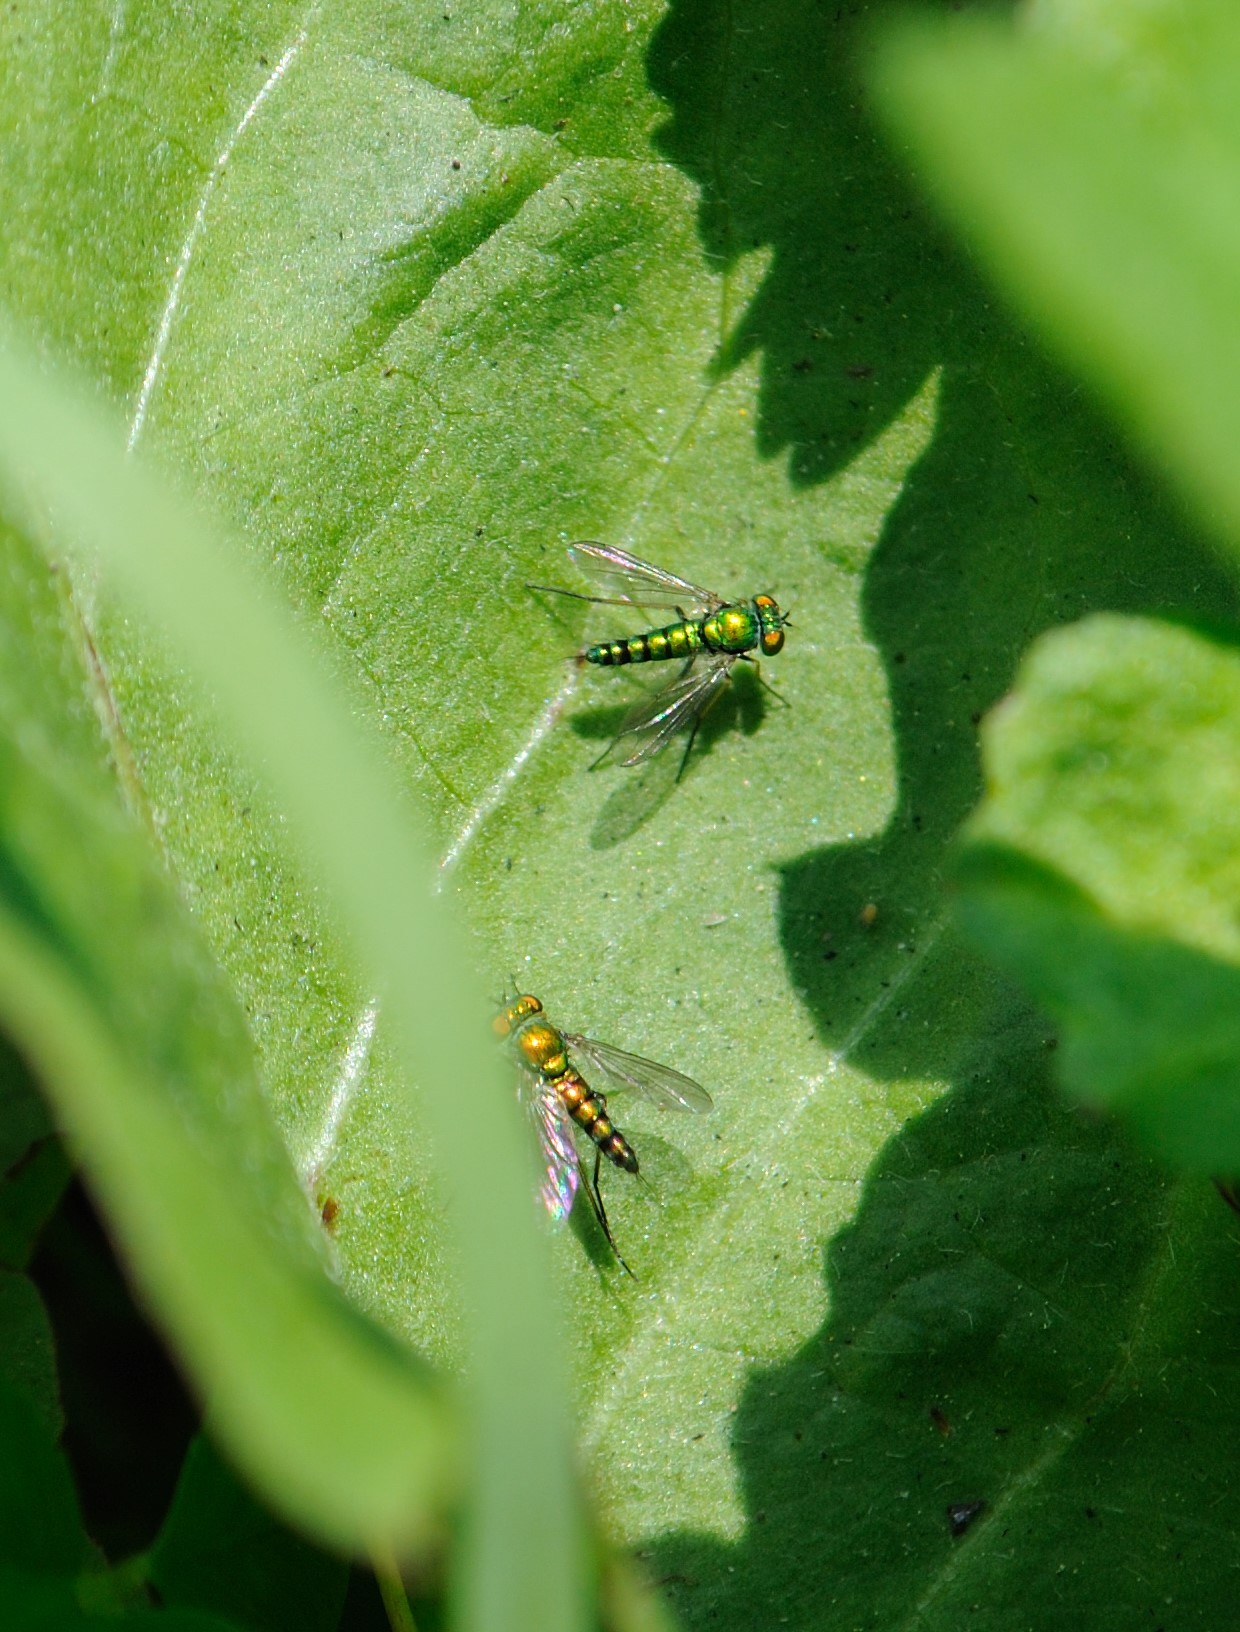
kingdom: Animalia
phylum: Arthropoda
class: Insecta
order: Diptera
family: Dolichopodidae
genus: Condylostylus
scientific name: Condylostylus
